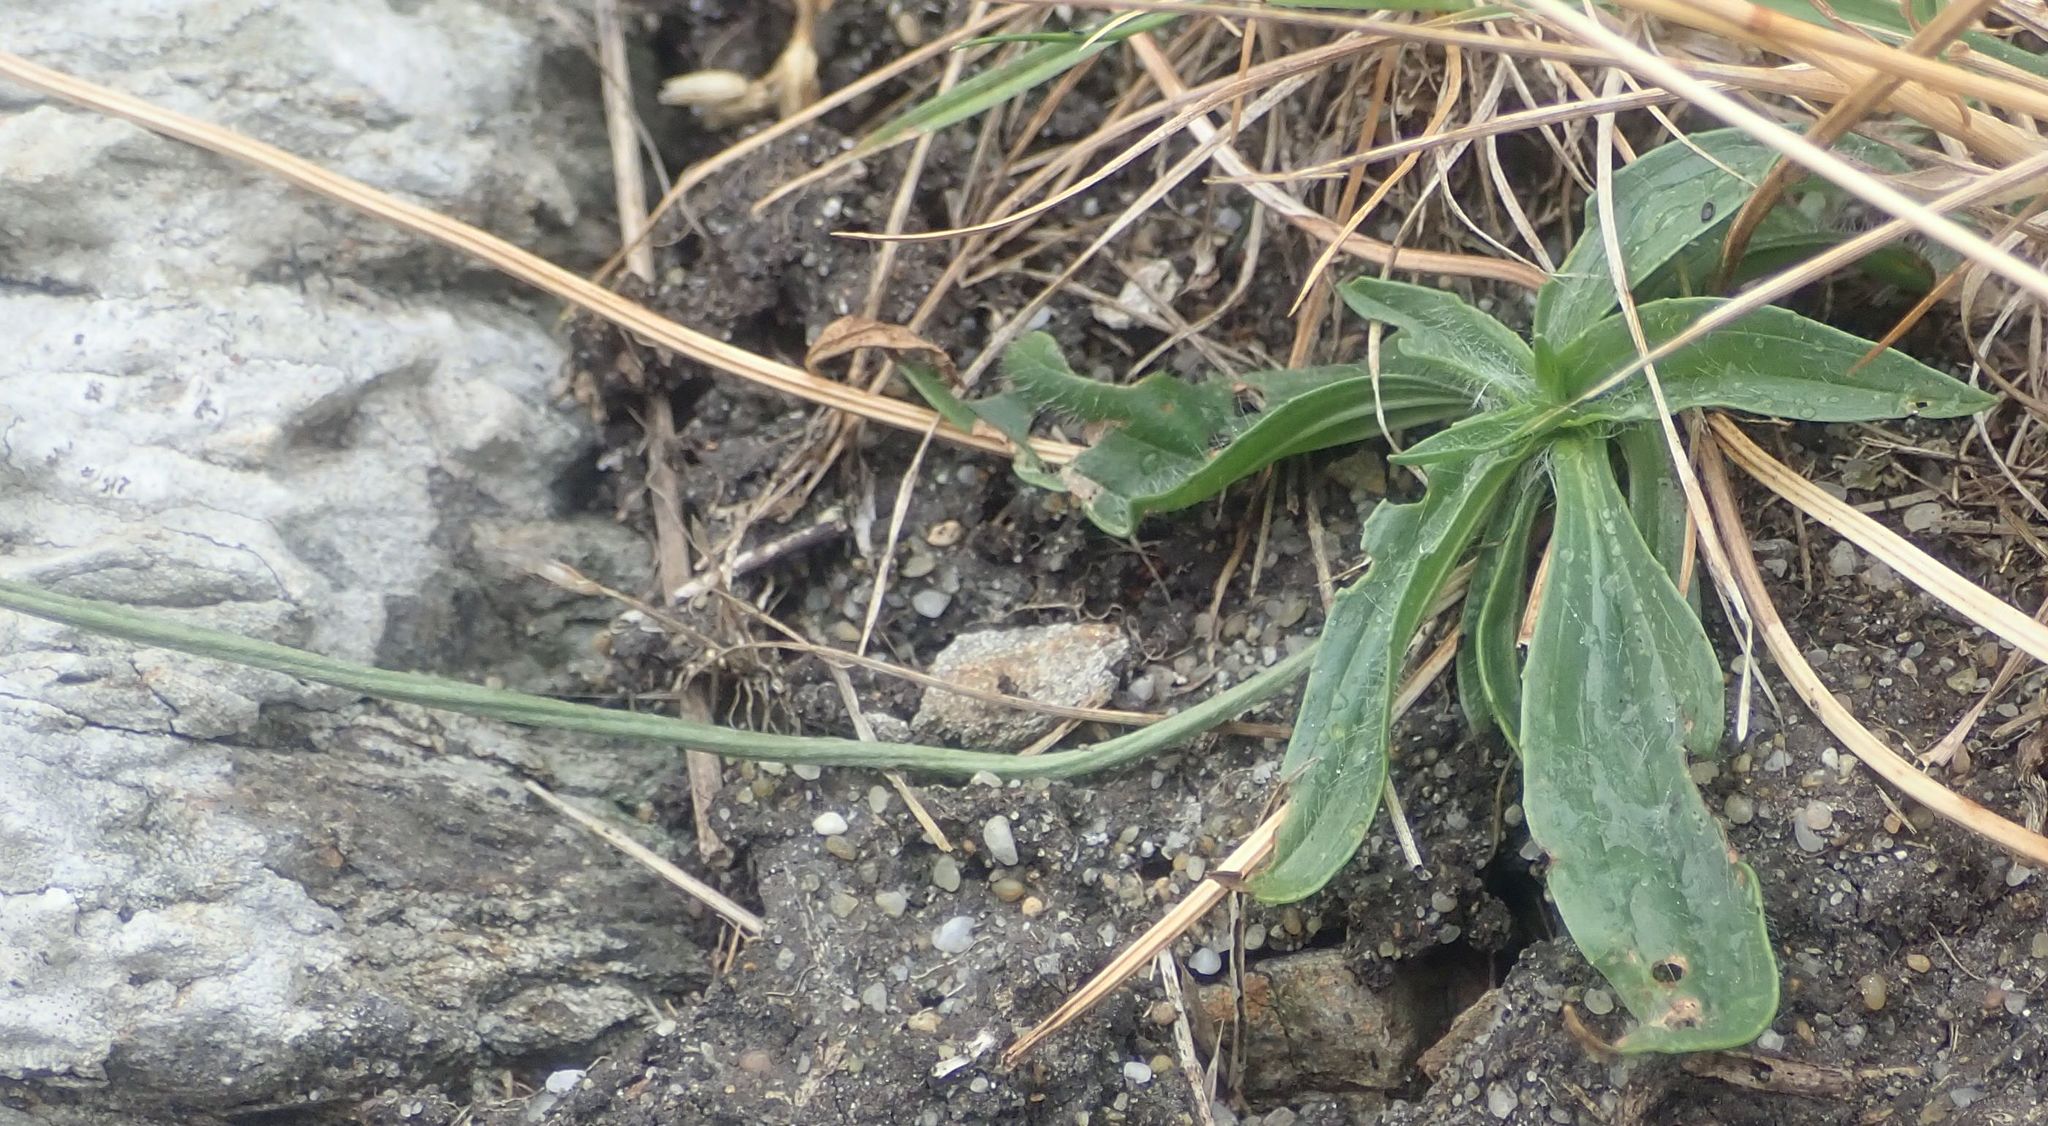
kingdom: Plantae
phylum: Tracheophyta
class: Magnoliopsida
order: Lamiales
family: Plantaginaceae
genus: Plantago
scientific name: Plantago lanceolata
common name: Ribwort plantain
